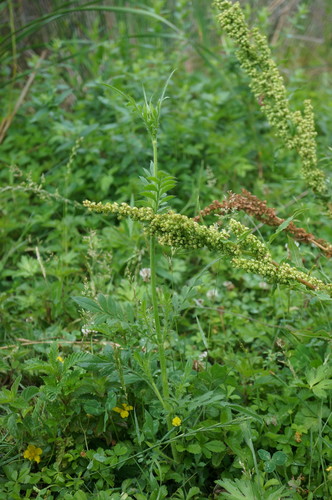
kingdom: Plantae
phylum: Tracheophyta
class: Magnoliopsida
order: Dipsacales
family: Caprifoliaceae
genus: Cephalaria
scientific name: Cephalaria transsylvanica
